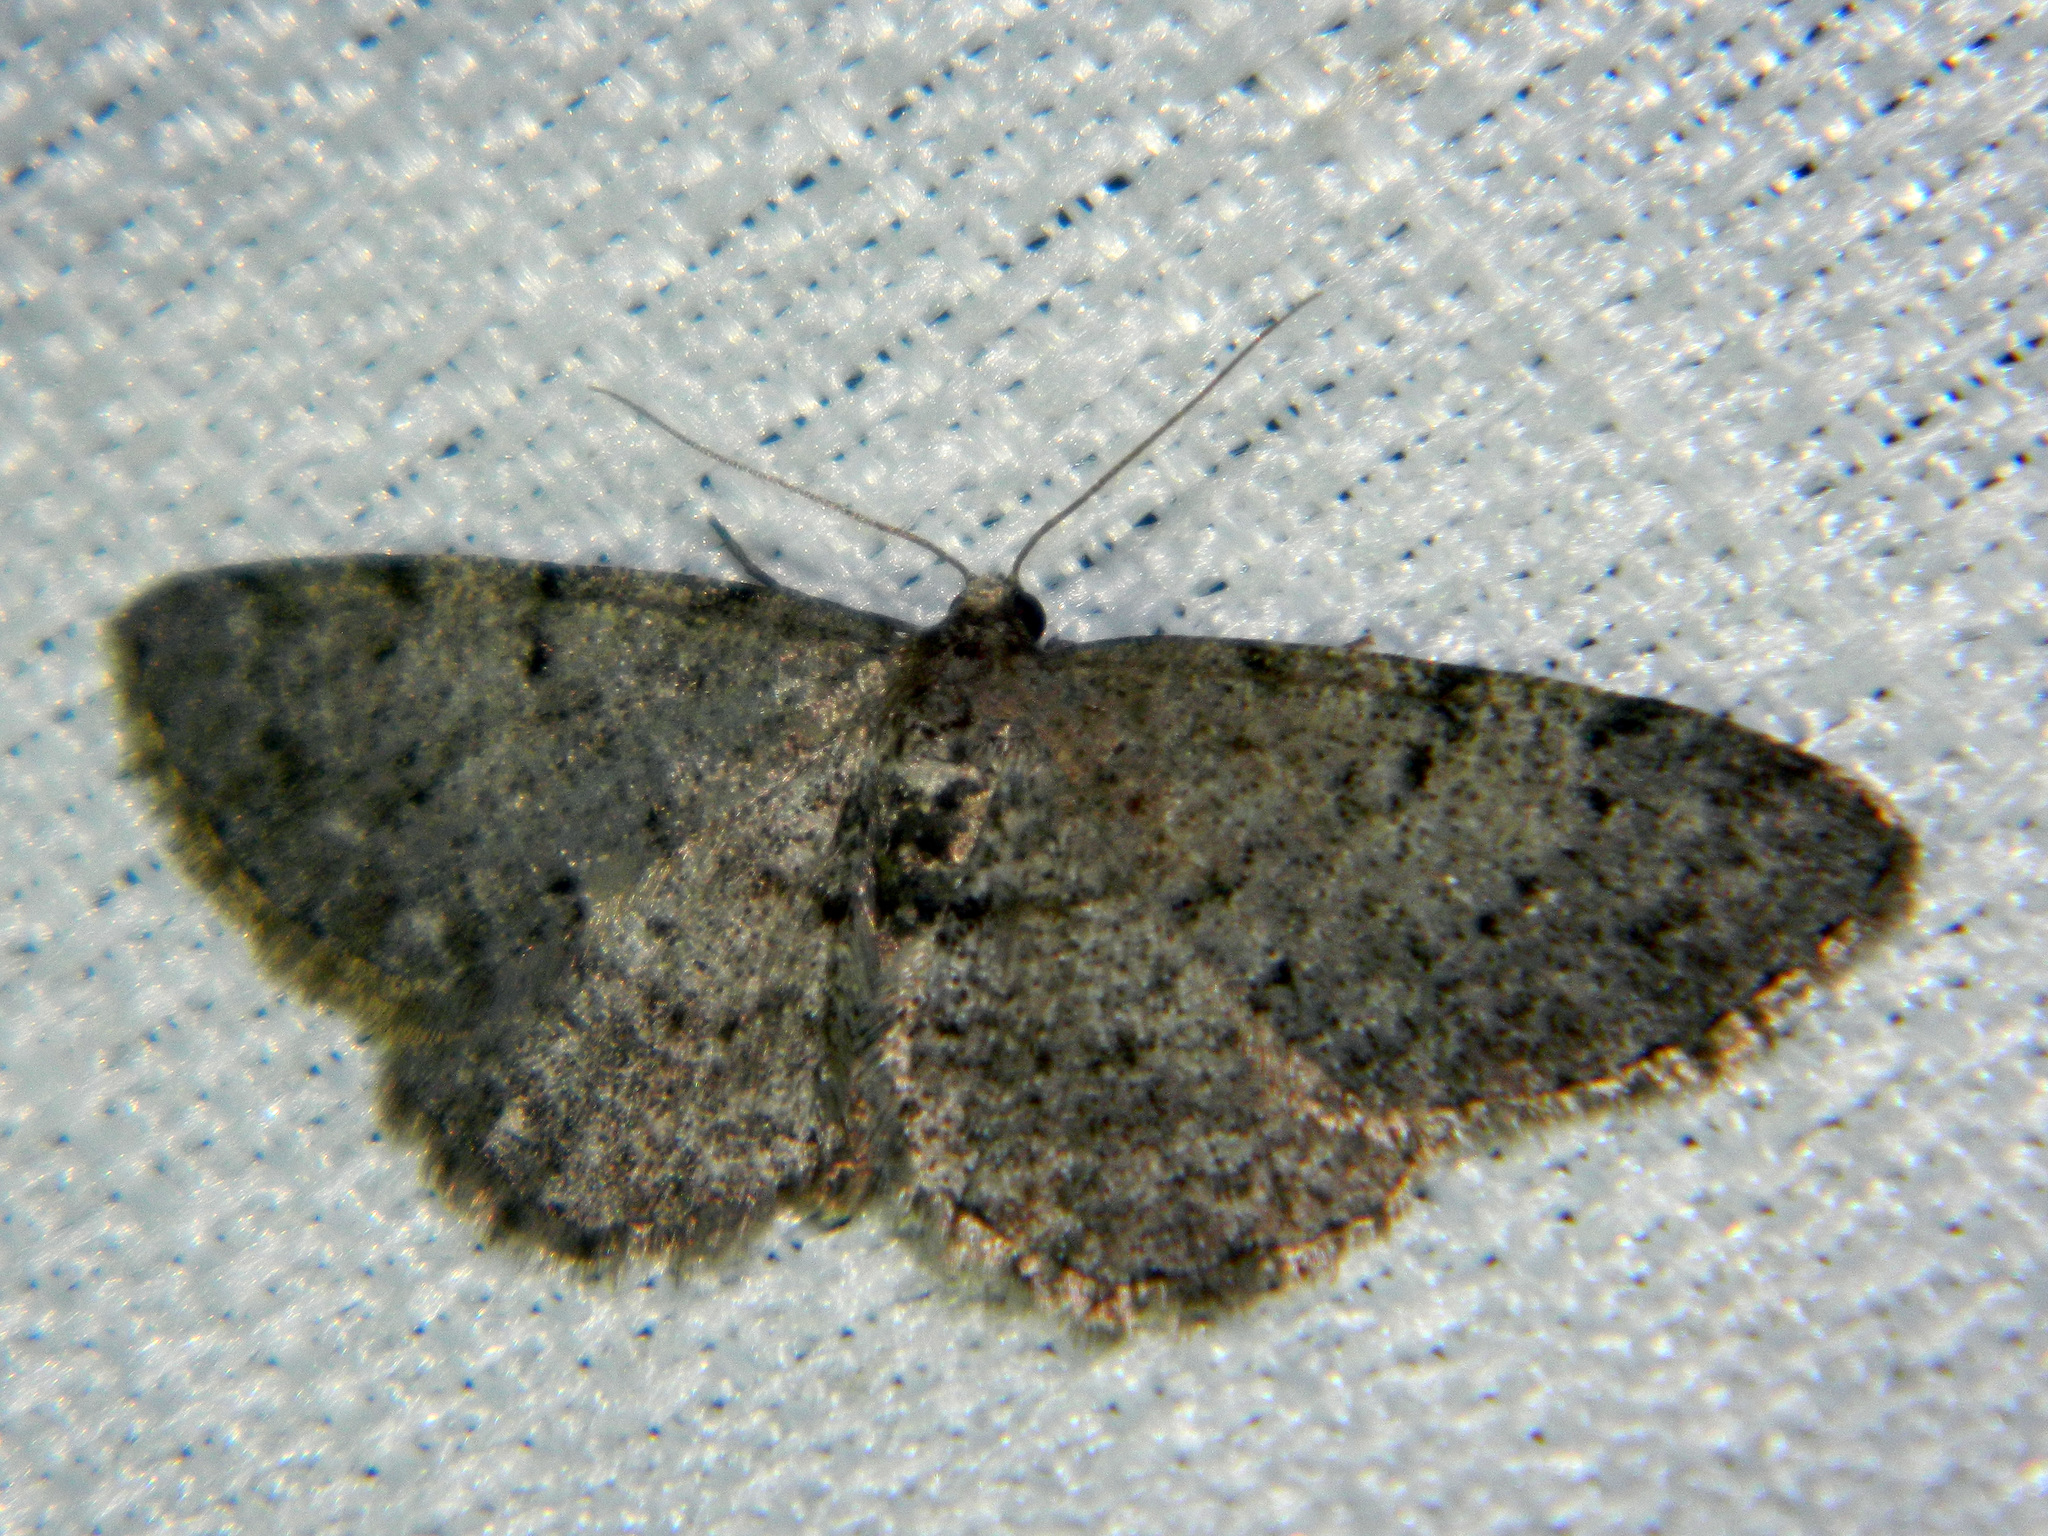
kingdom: Animalia
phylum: Arthropoda
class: Insecta
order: Lepidoptera
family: Geometridae
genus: Aethalura
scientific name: Aethalura intertexta
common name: Four-barred gray
